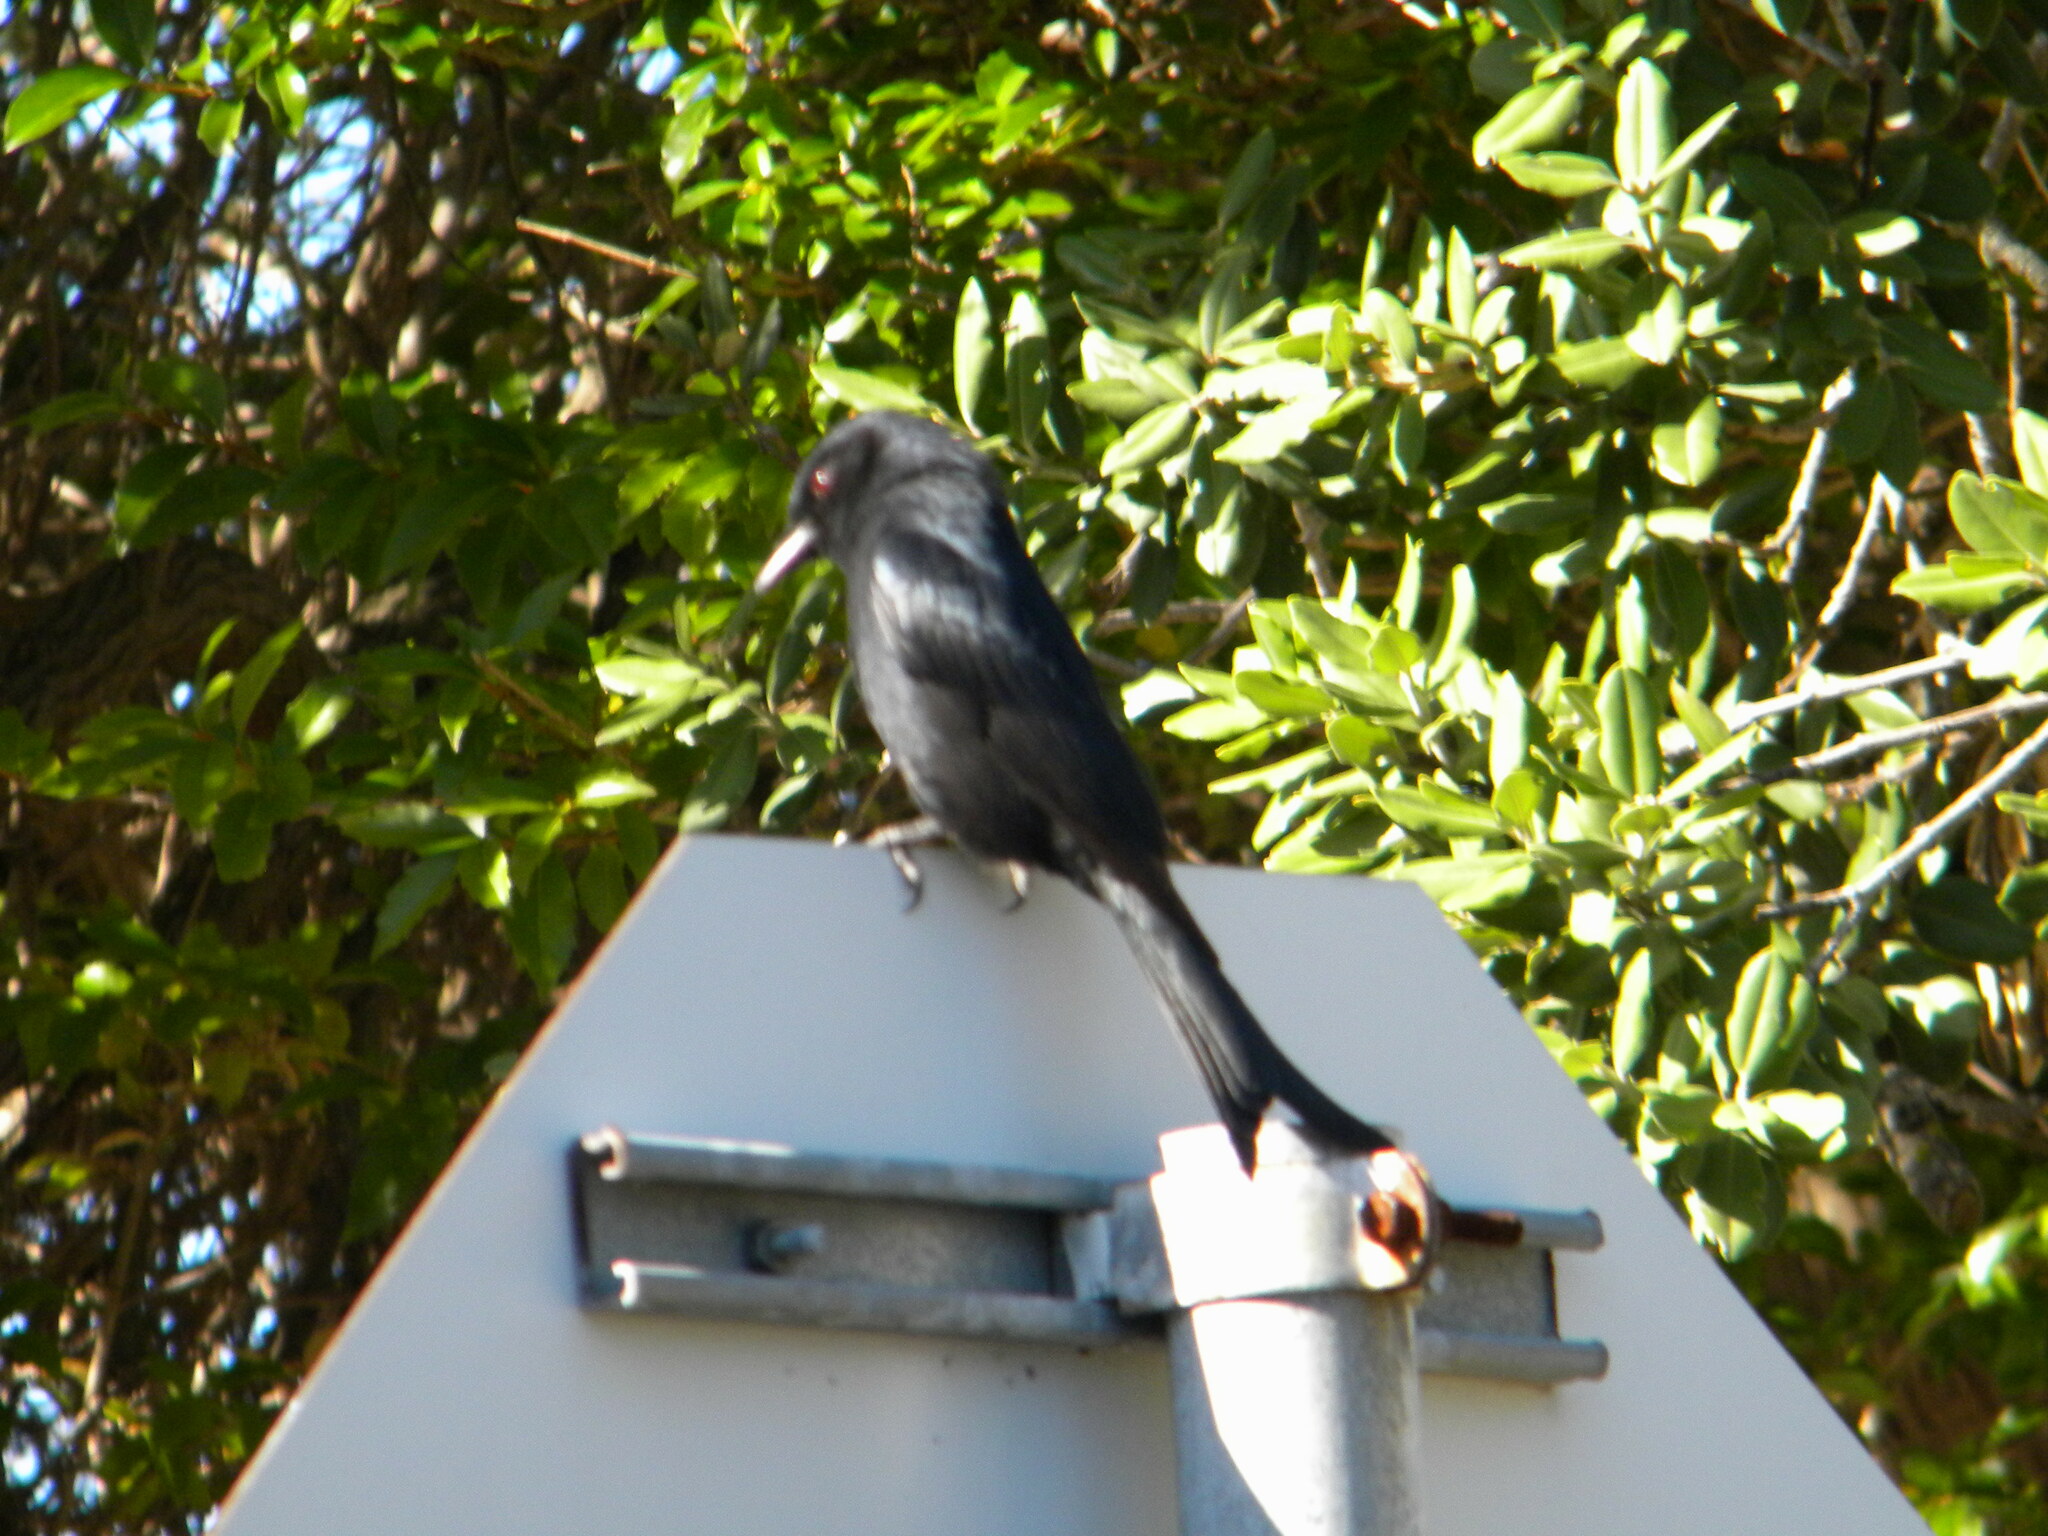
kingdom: Animalia
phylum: Chordata
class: Aves
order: Passeriformes
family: Dicruridae
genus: Dicrurus
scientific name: Dicrurus adsimilis
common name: Fork-tailed drongo
